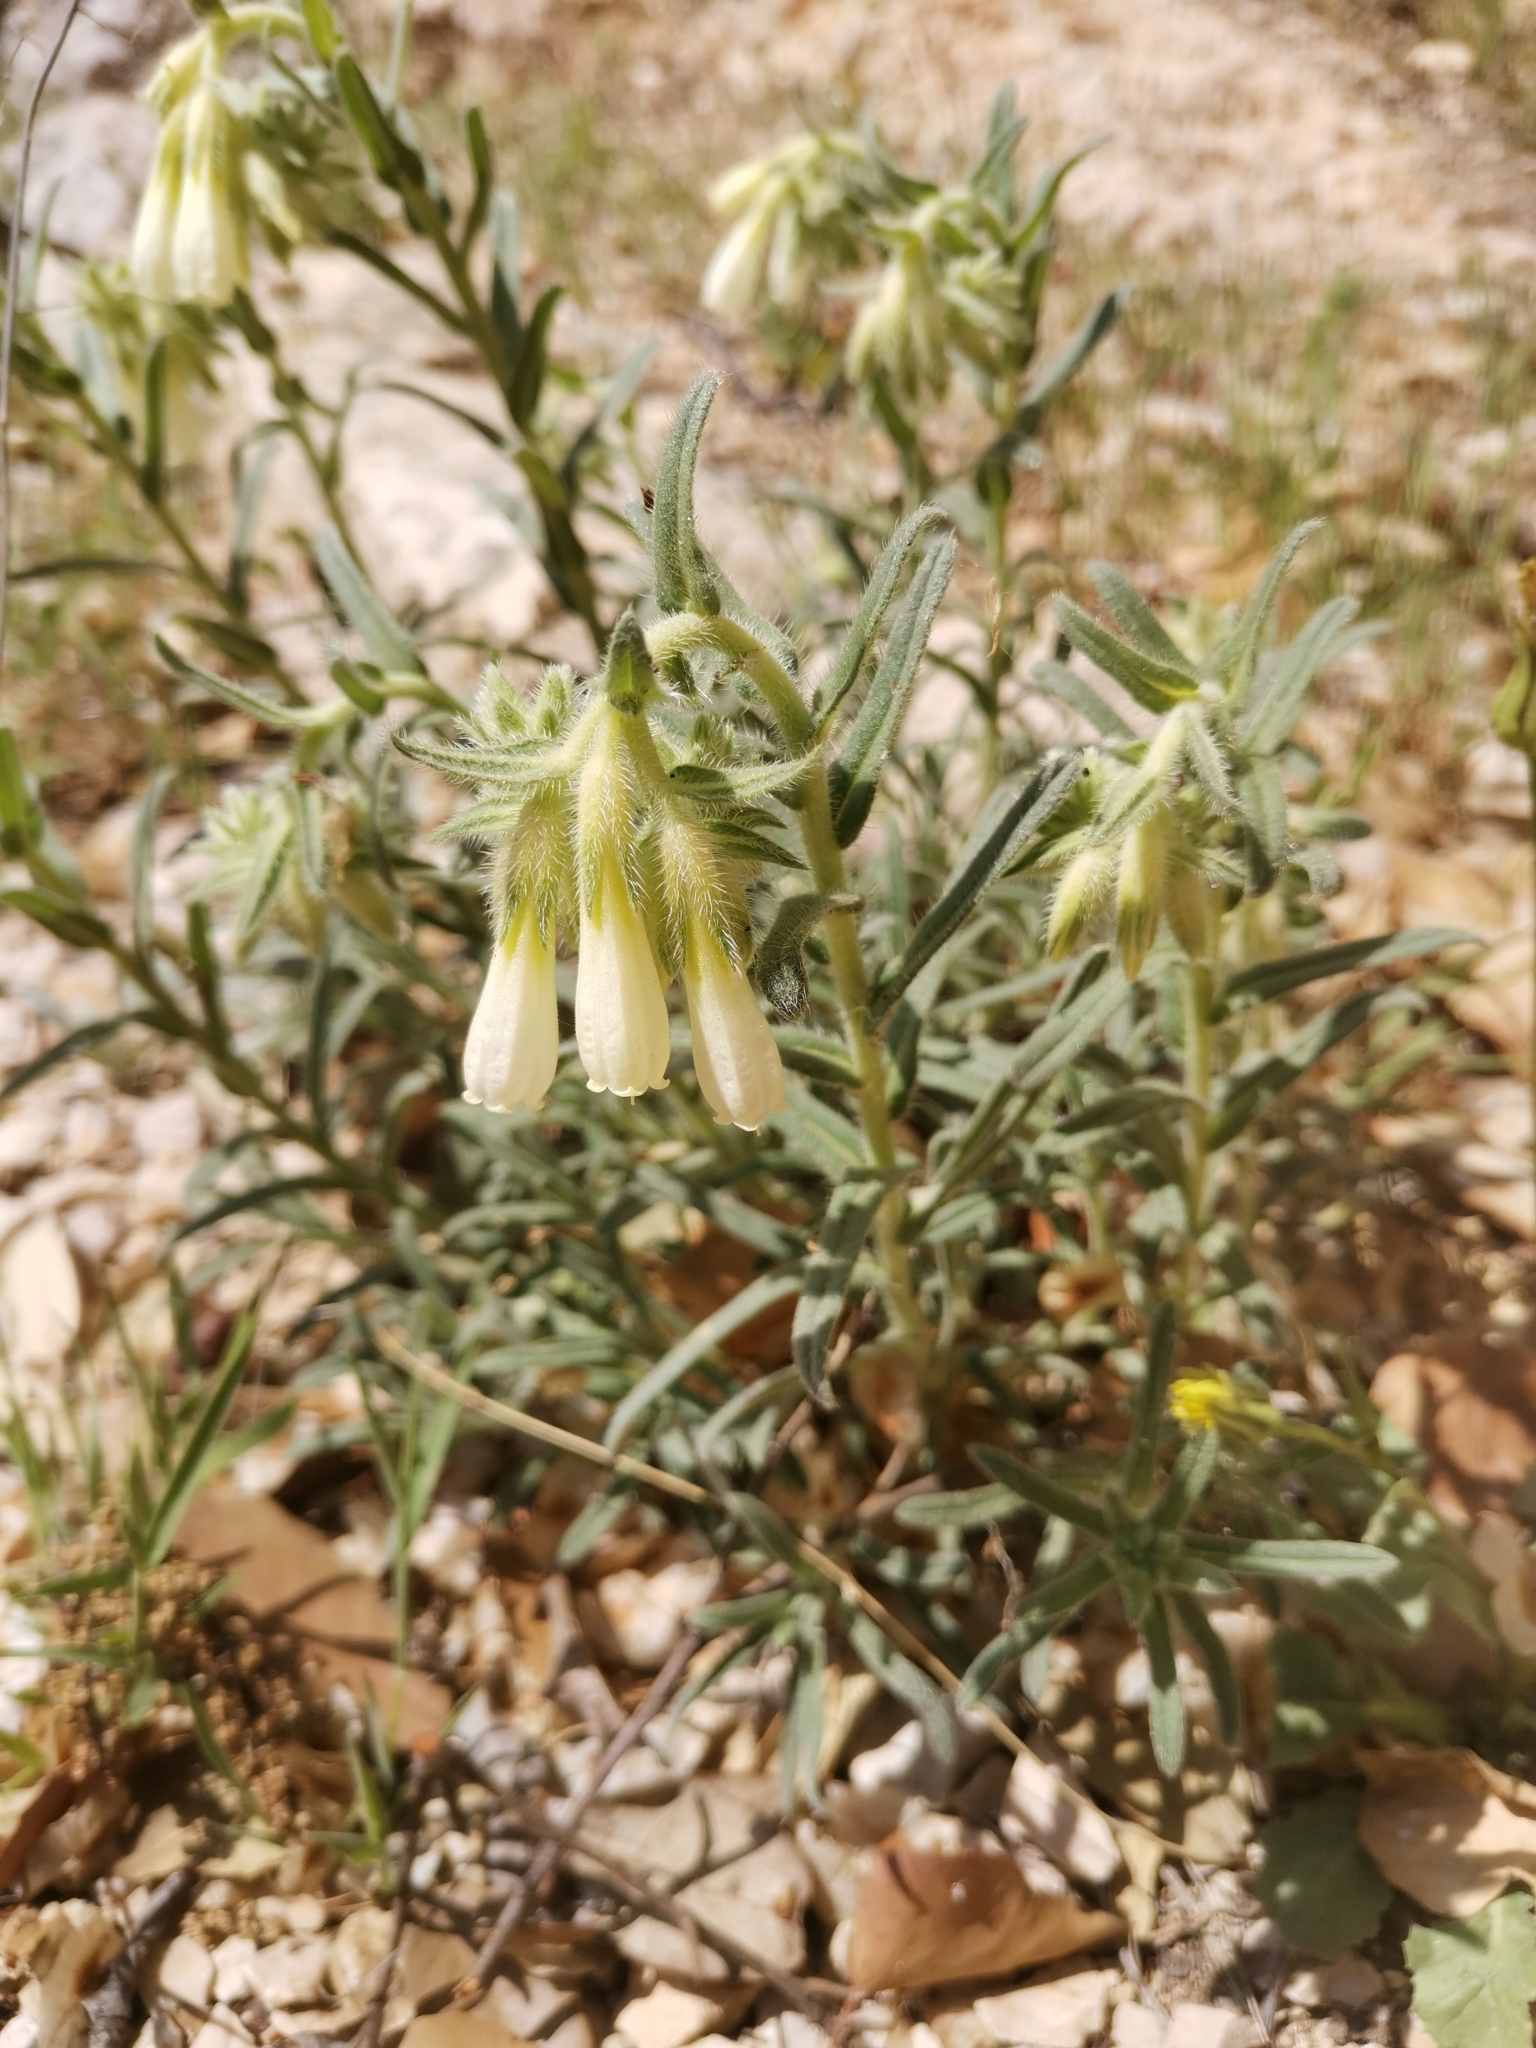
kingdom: Plantae
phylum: Tracheophyta
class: Magnoliopsida
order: Boraginales
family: Boraginaceae
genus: Onosma
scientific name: Onosma echioides
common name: Goldendrop
